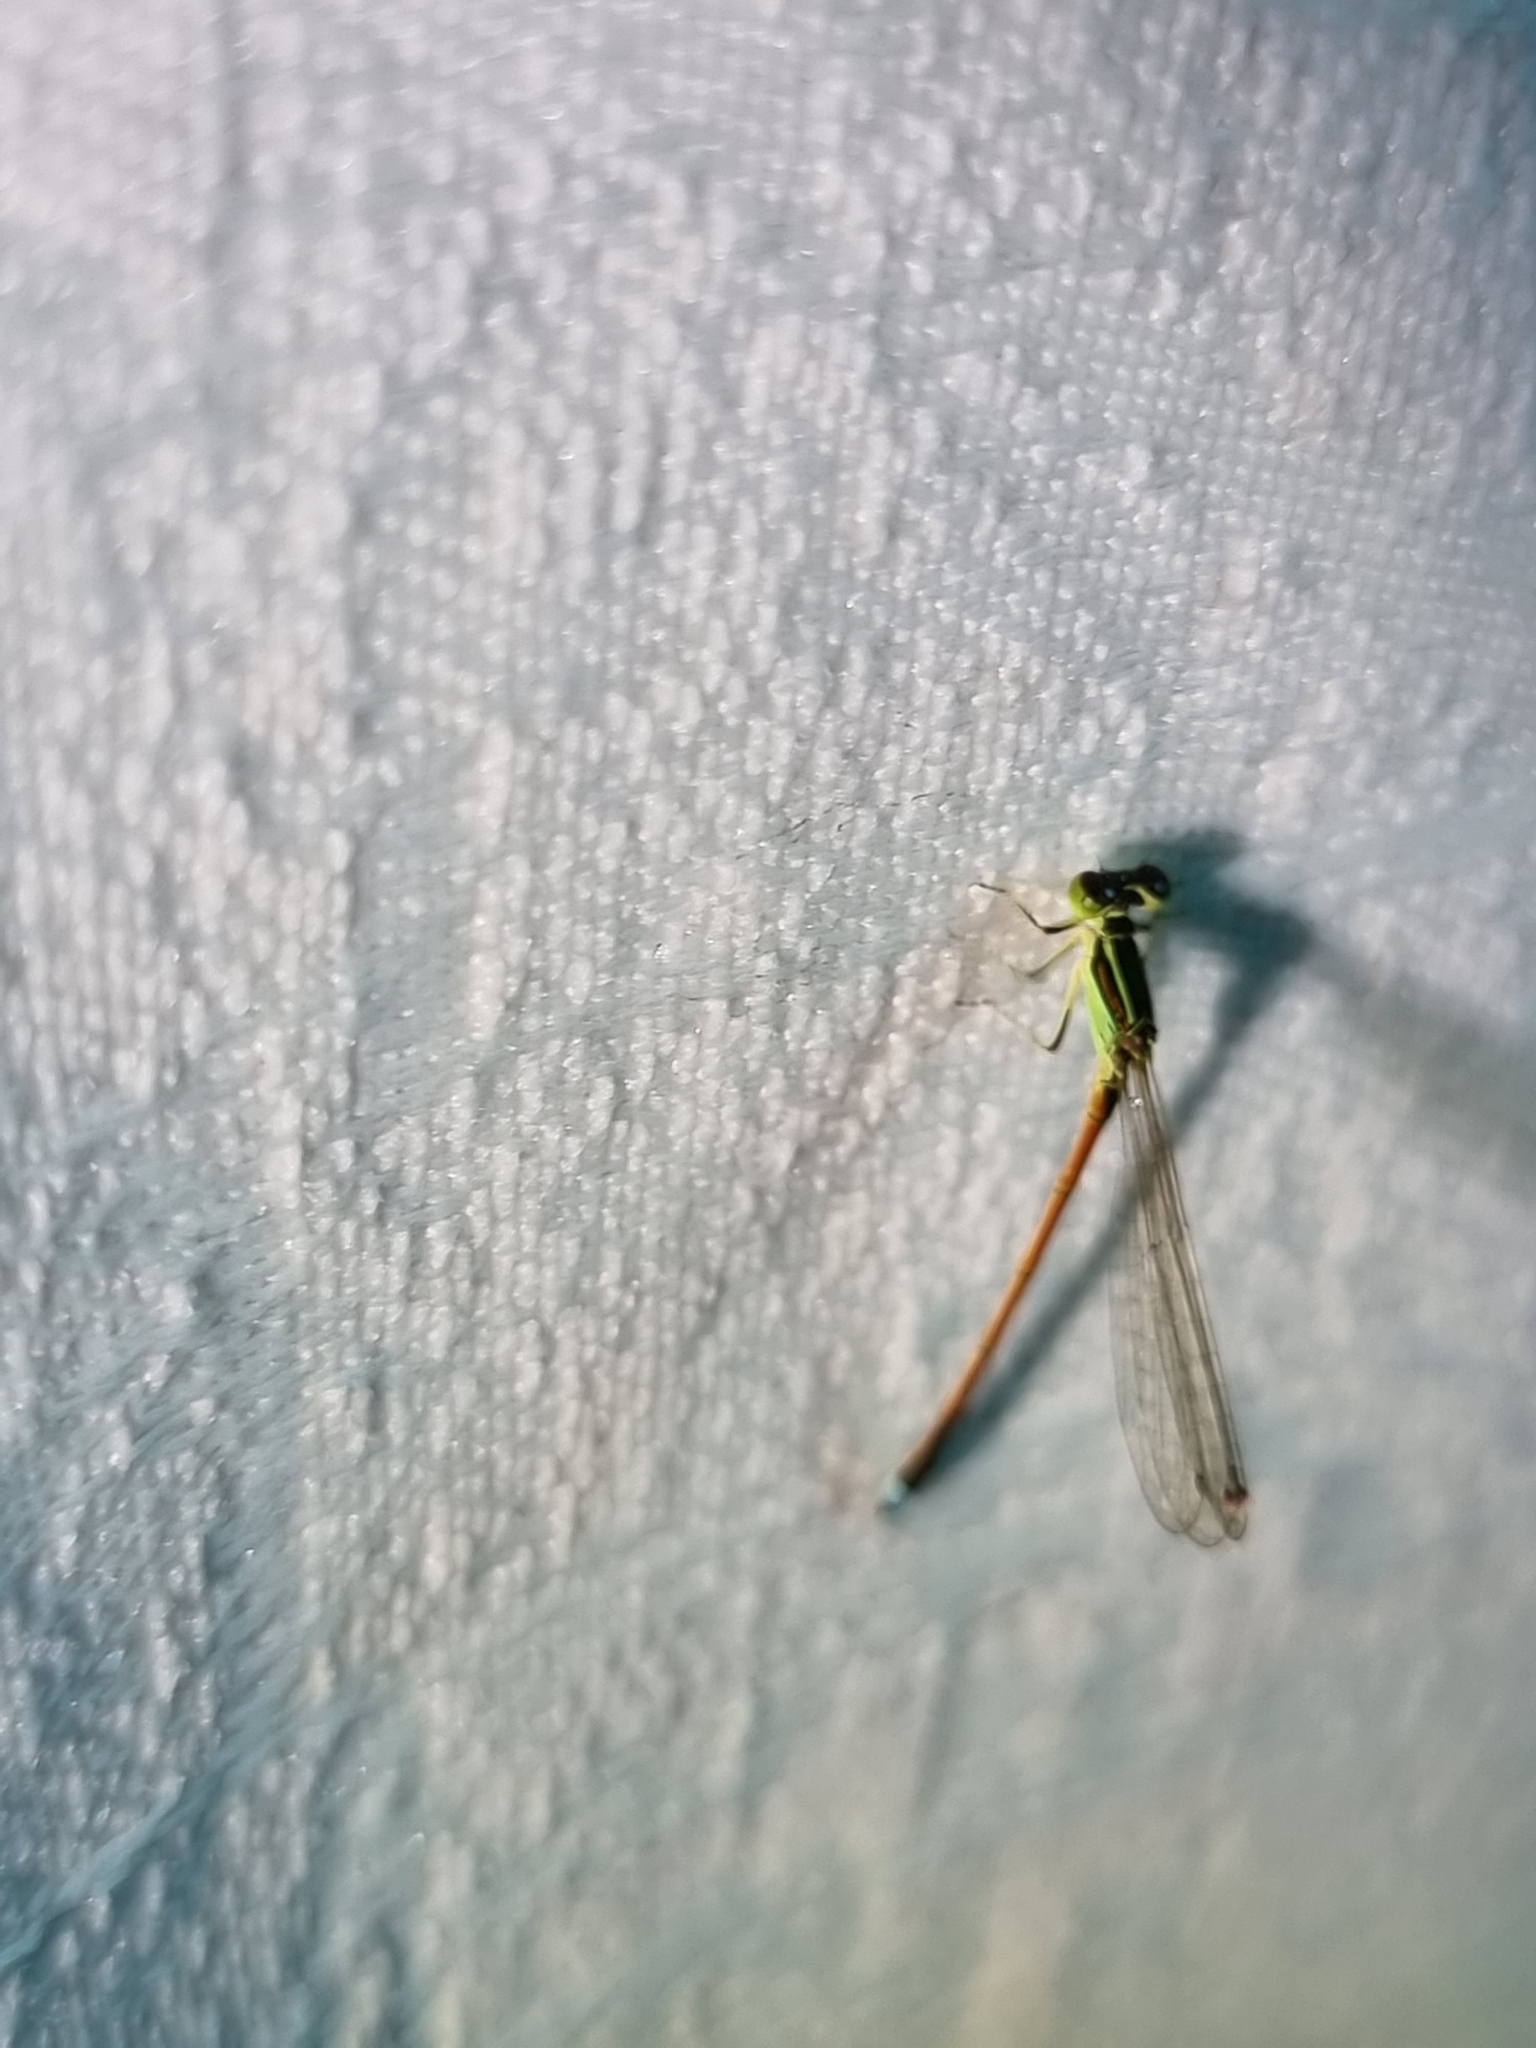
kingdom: Animalia
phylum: Arthropoda
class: Insecta
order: Odonata
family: Coenagrionidae
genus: Ischnura
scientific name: Ischnura aurora
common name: Gossamer damselfly
